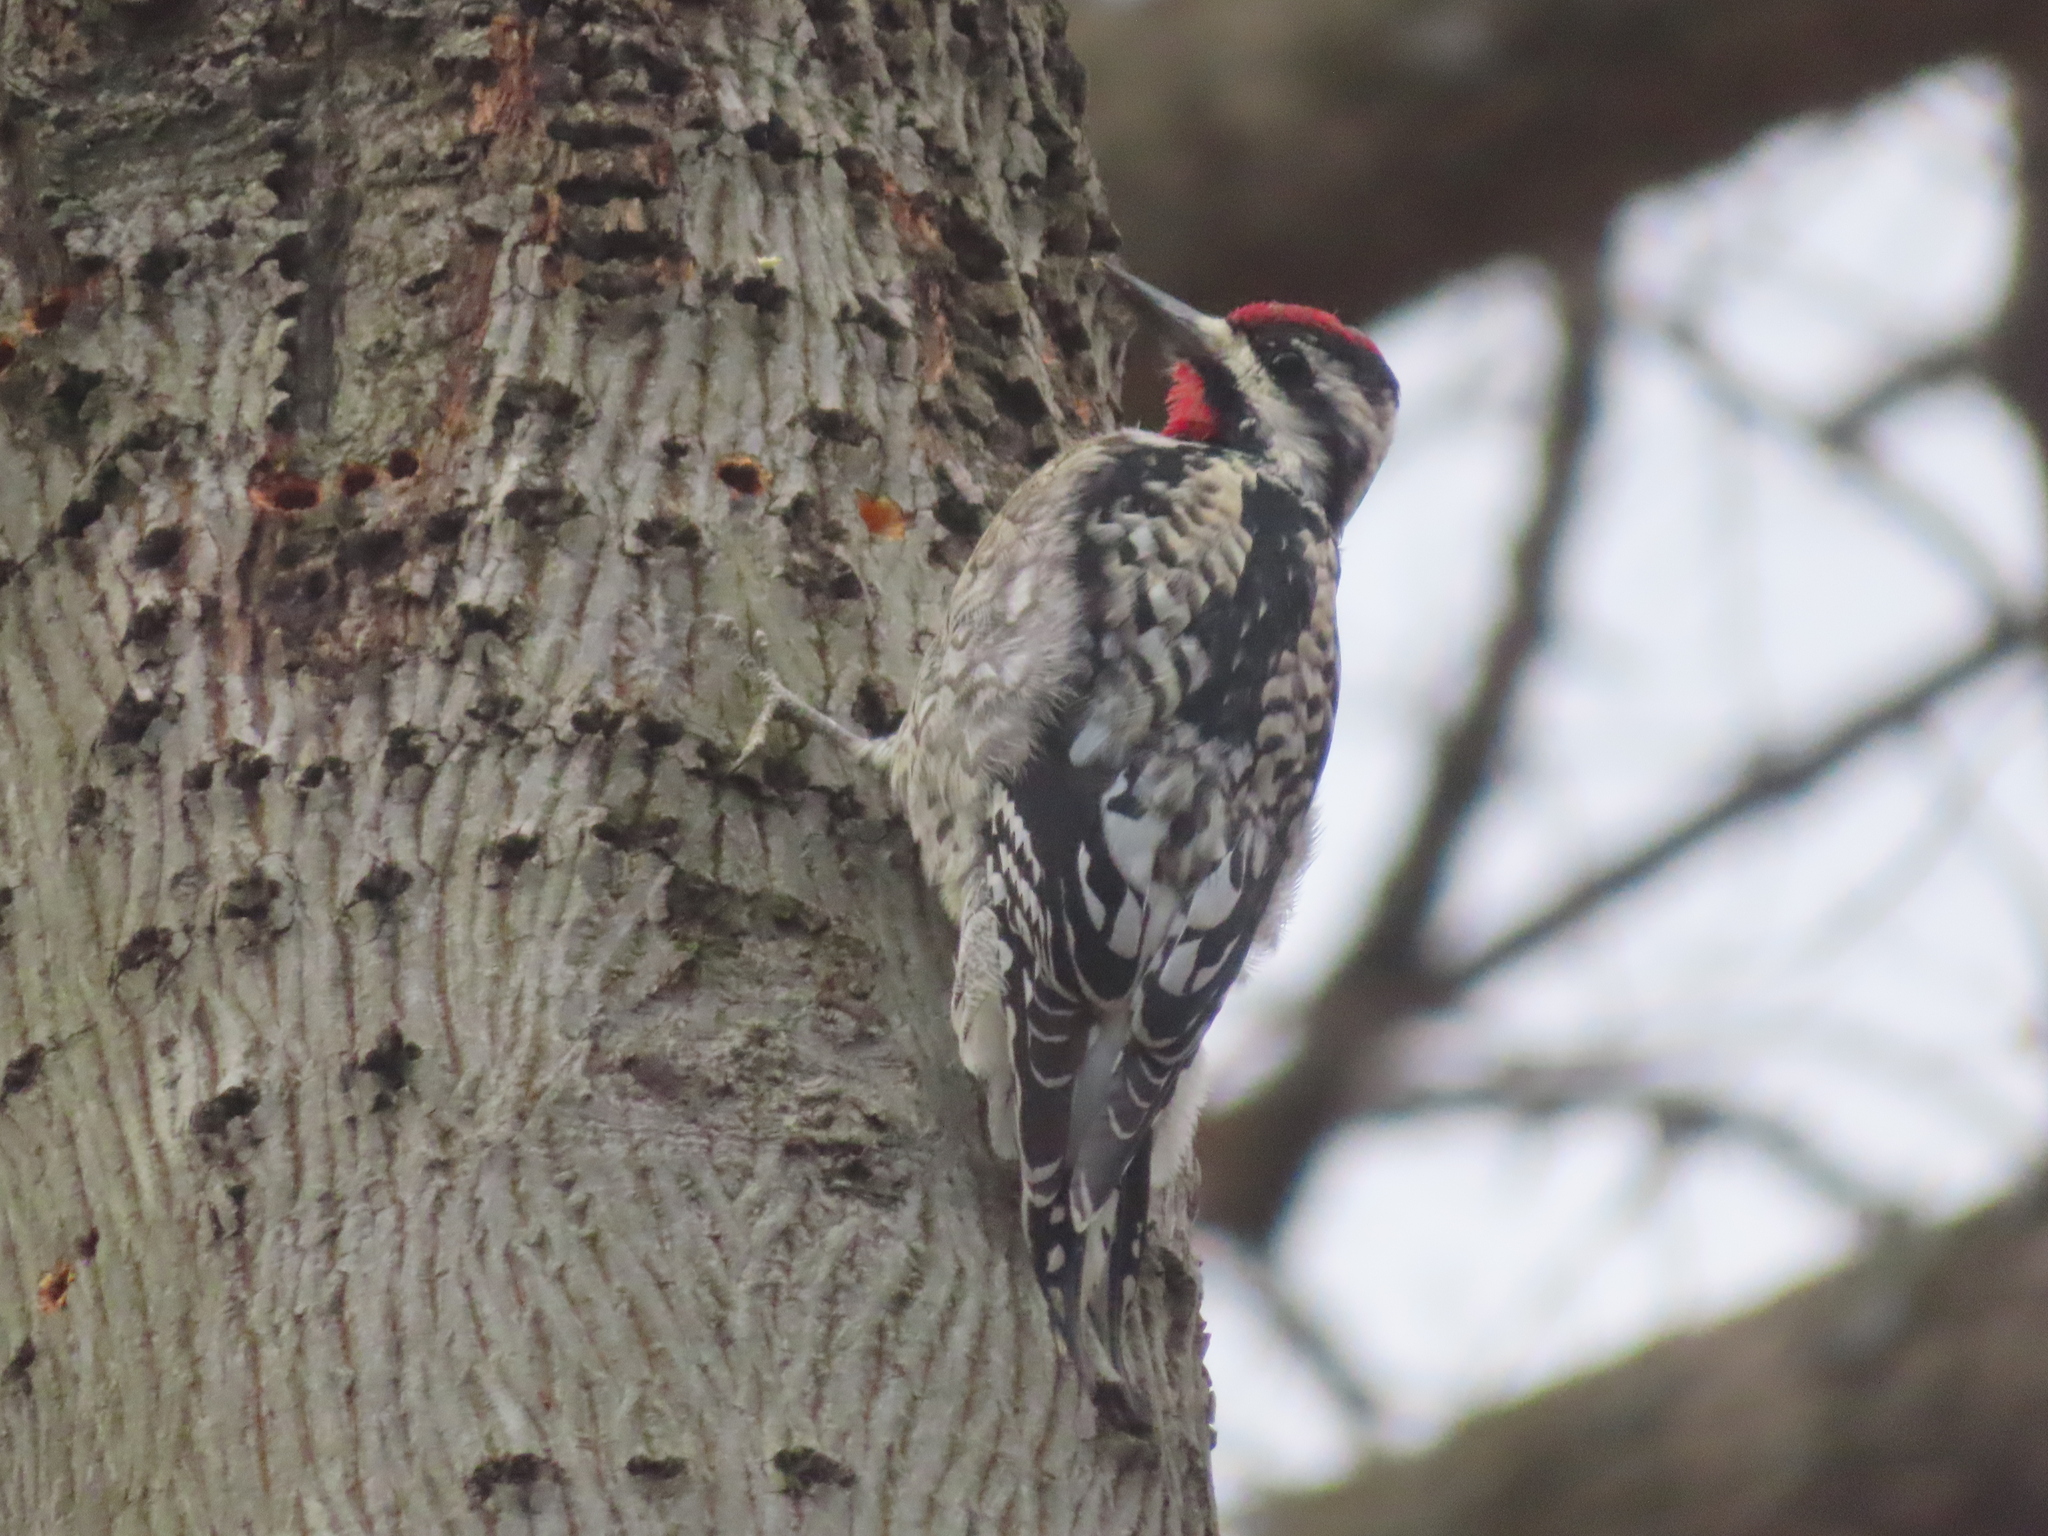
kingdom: Animalia
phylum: Chordata
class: Aves
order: Piciformes
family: Picidae
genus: Sphyrapicus
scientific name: Sphyrapicus varius
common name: Yellow-bellied sapsucker
